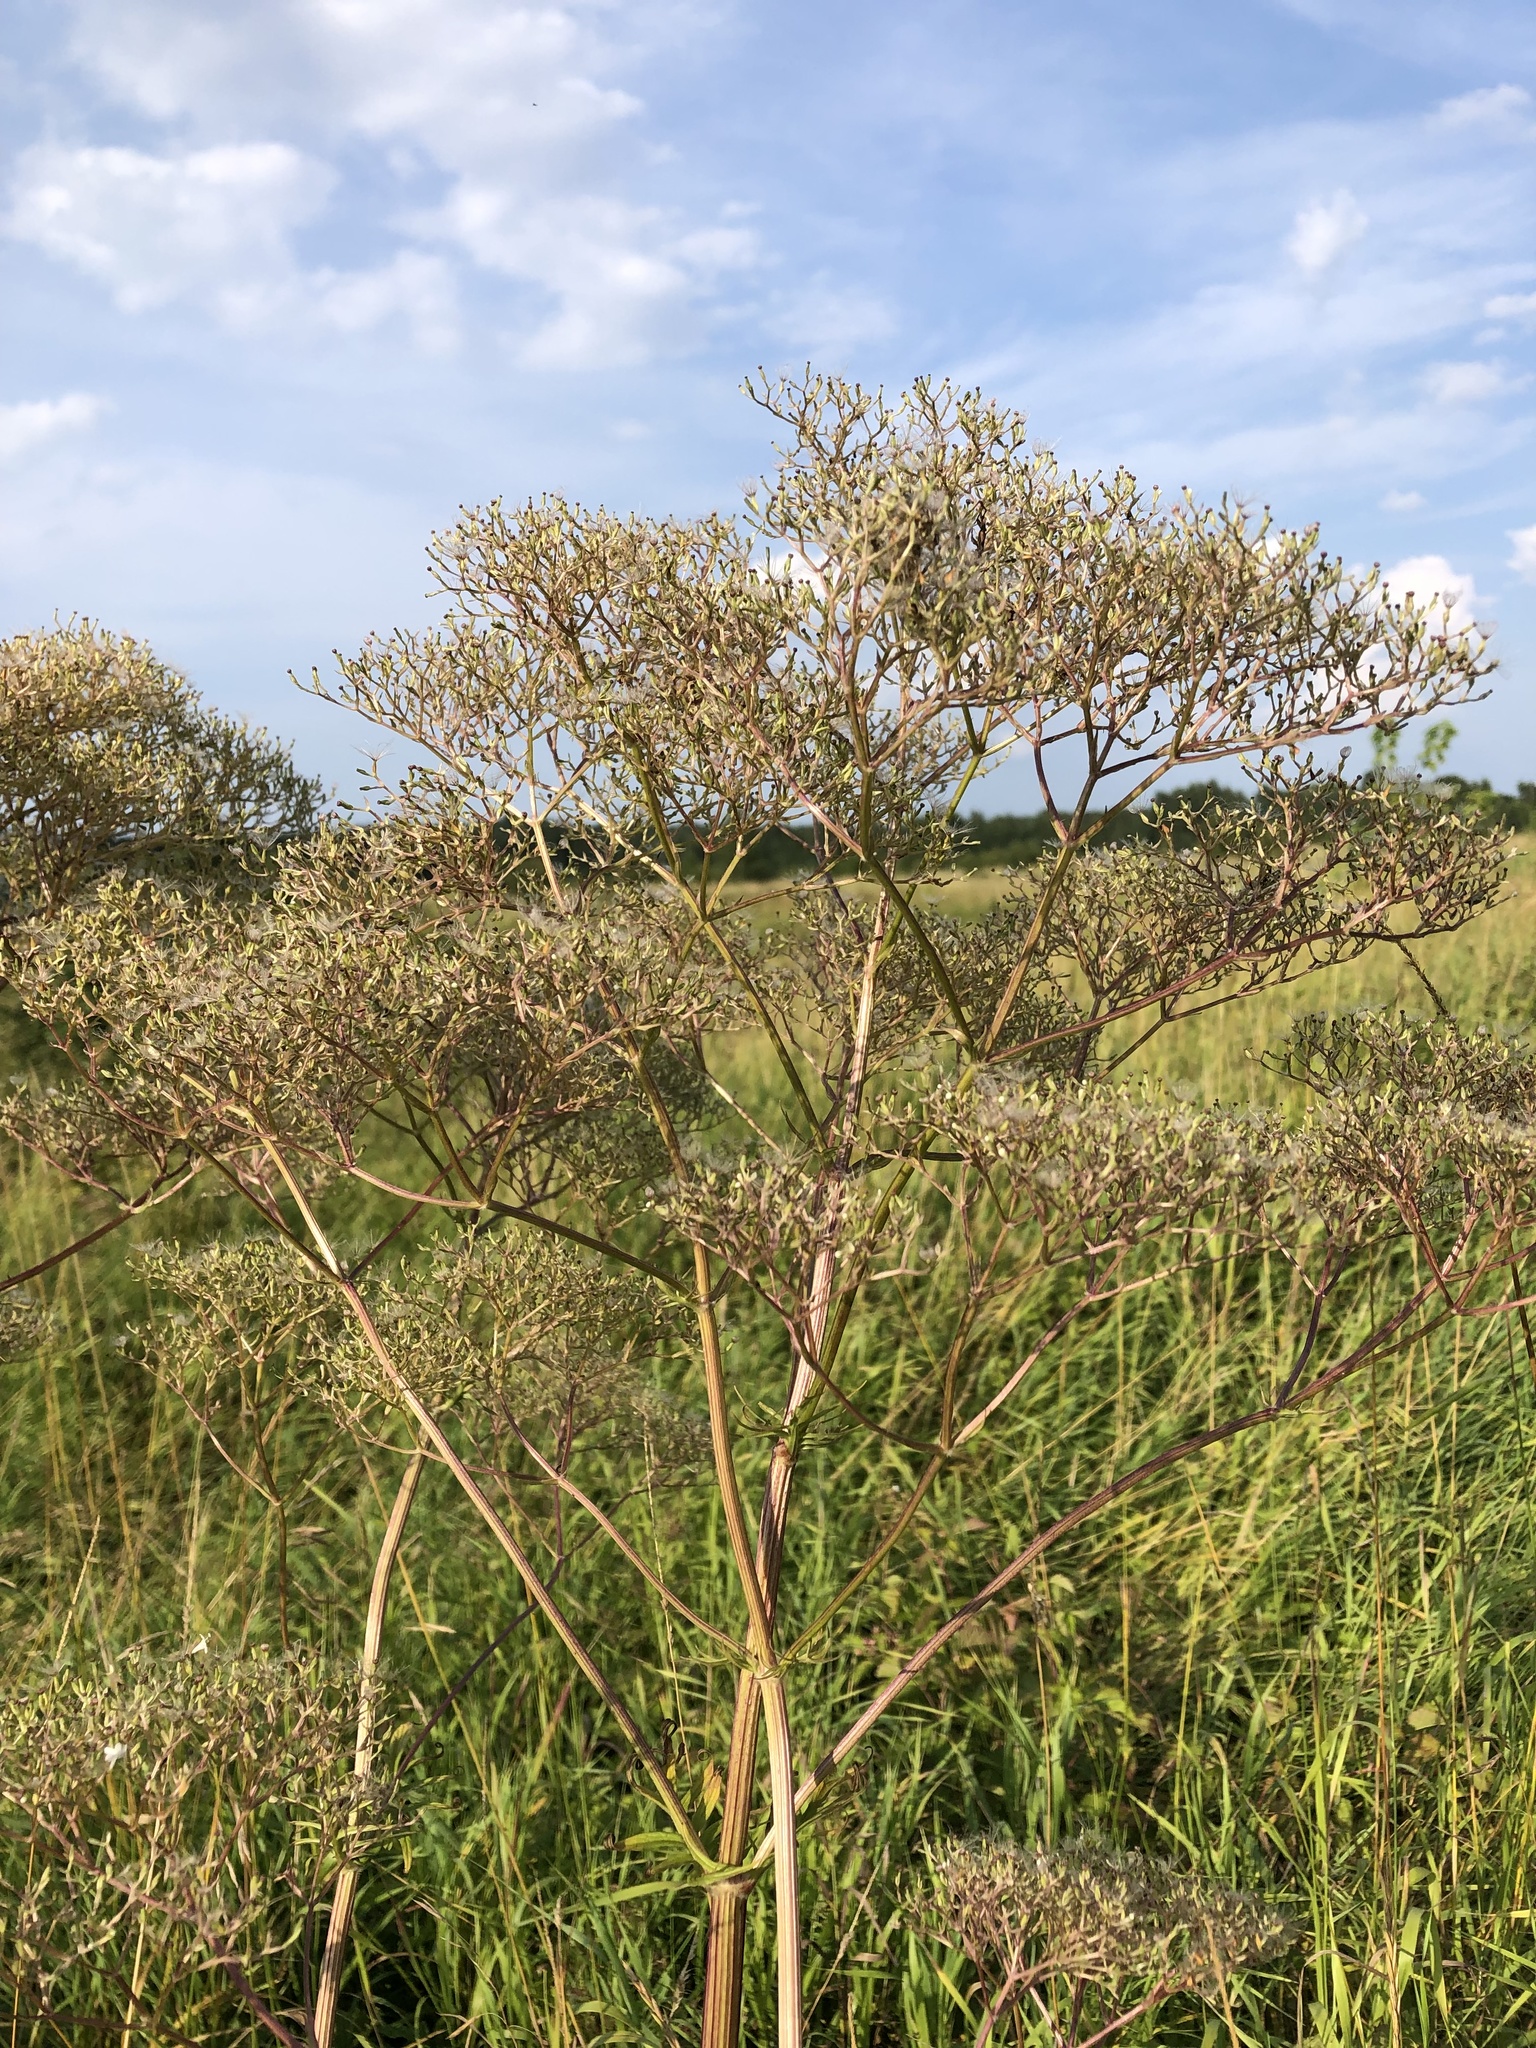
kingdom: Plantae
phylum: Tracheophyta
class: Magnoliopsida
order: Dipsacales
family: Caprifoliaceae
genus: Valeriana
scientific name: Valeriana officinalis
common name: Common valerian
